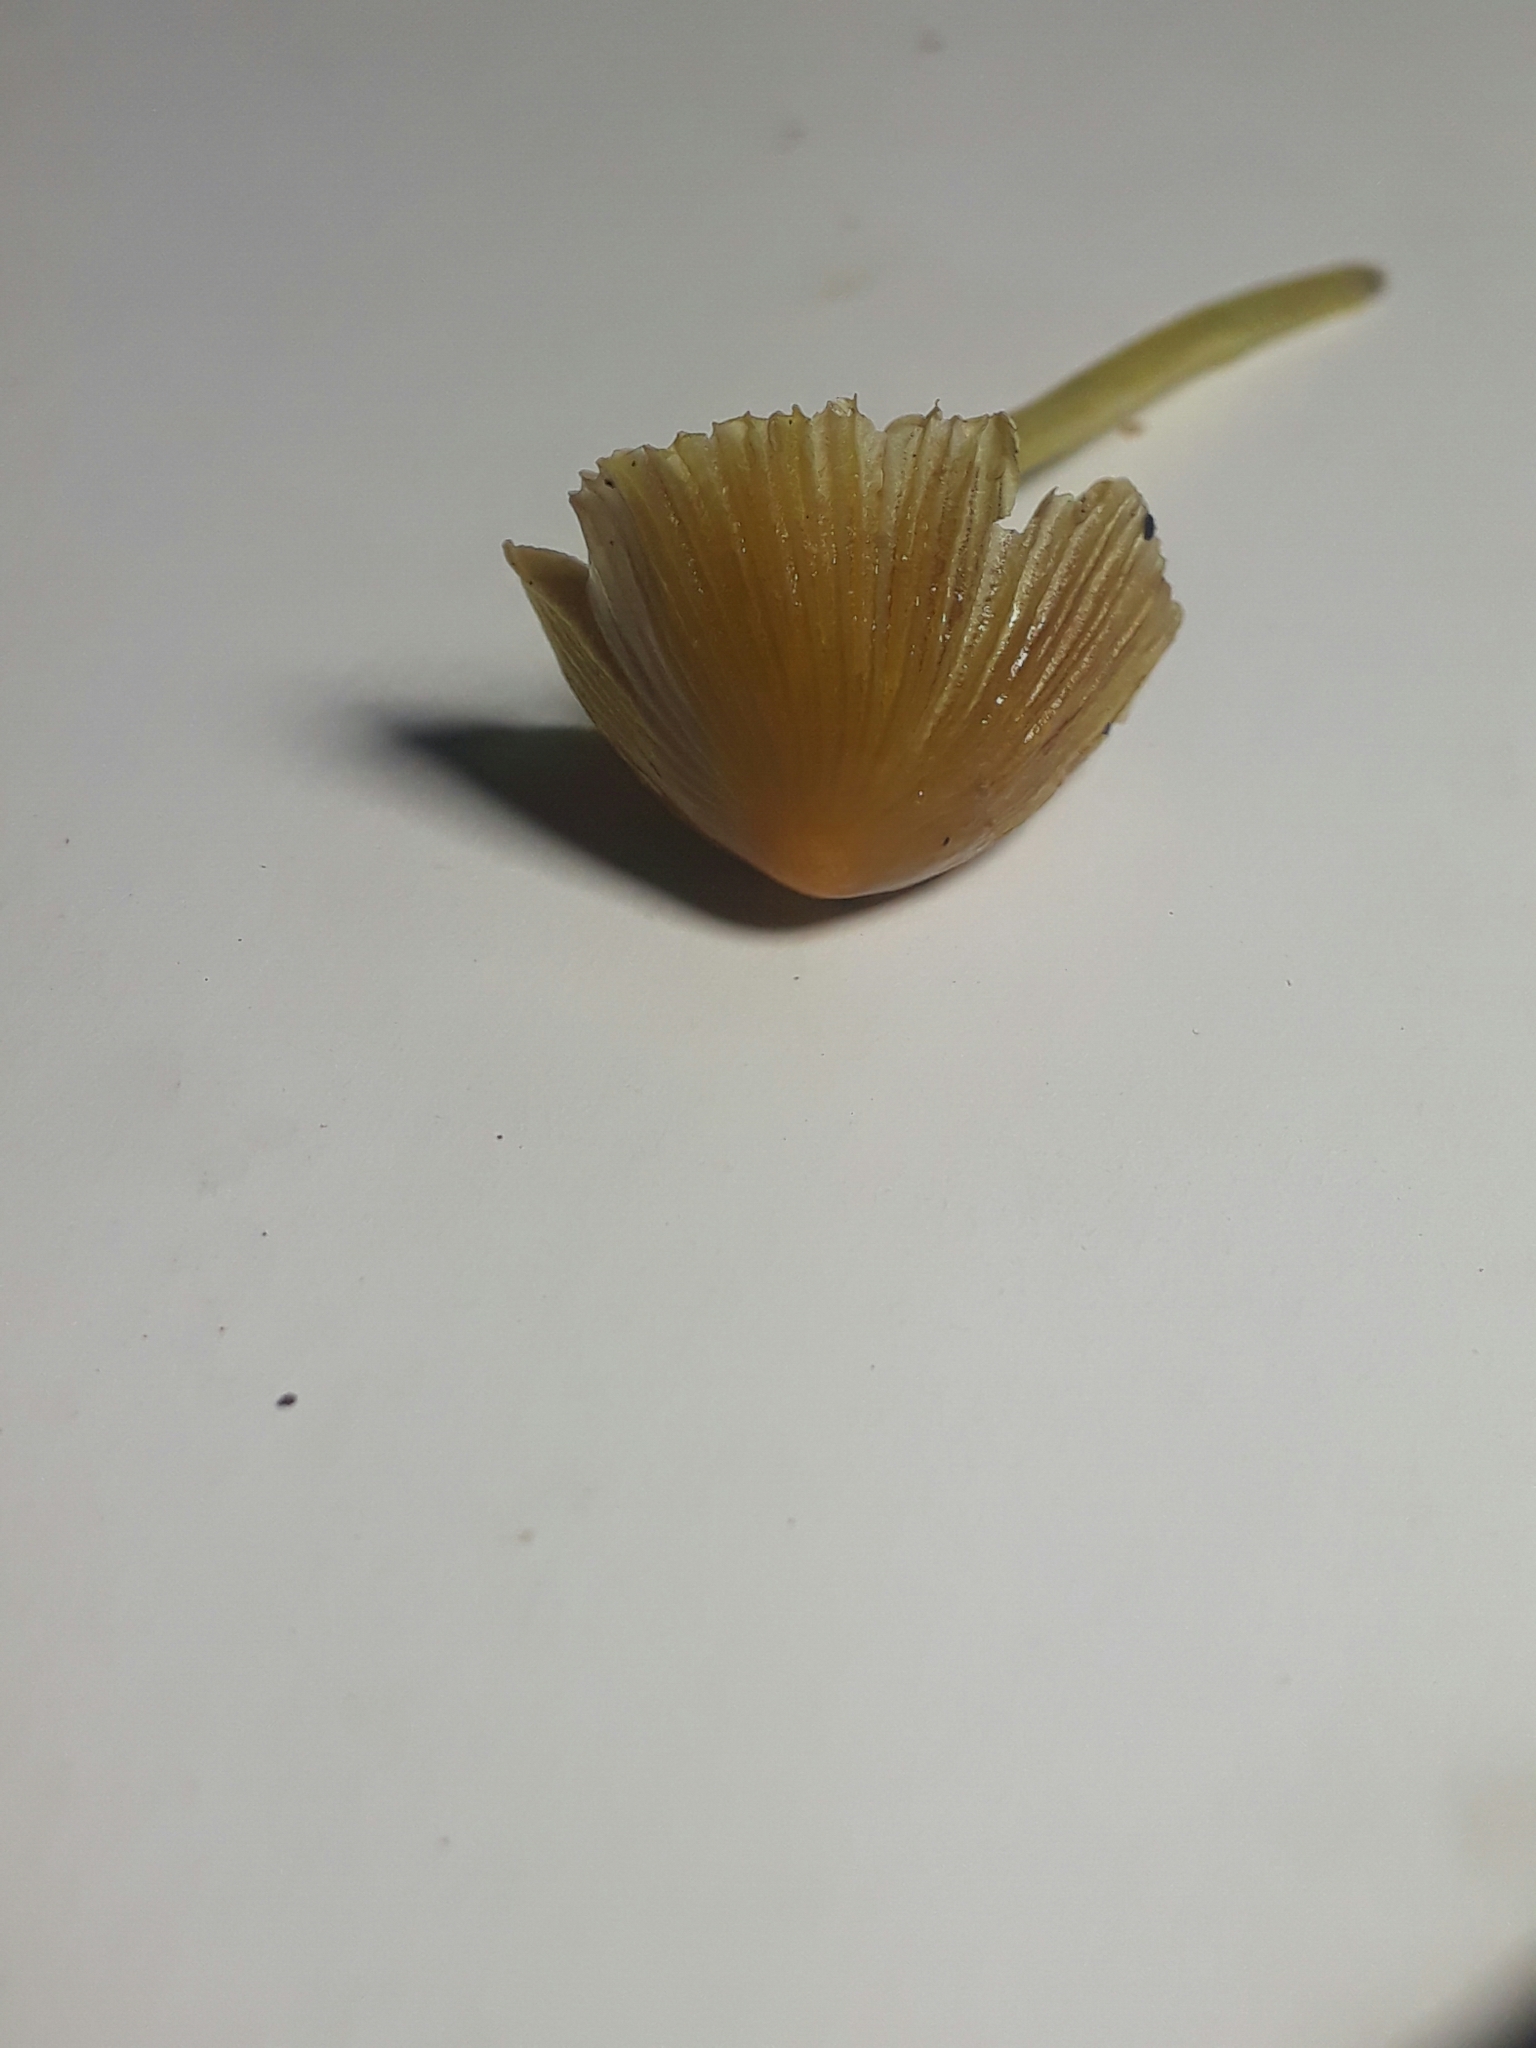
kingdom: Fungi
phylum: Basidiomycota
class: Agaricomycetes
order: Agaricales
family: Bolbitiaceae
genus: Bolbitius
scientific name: Bolbitius titubans
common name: Yellow fieldcap
